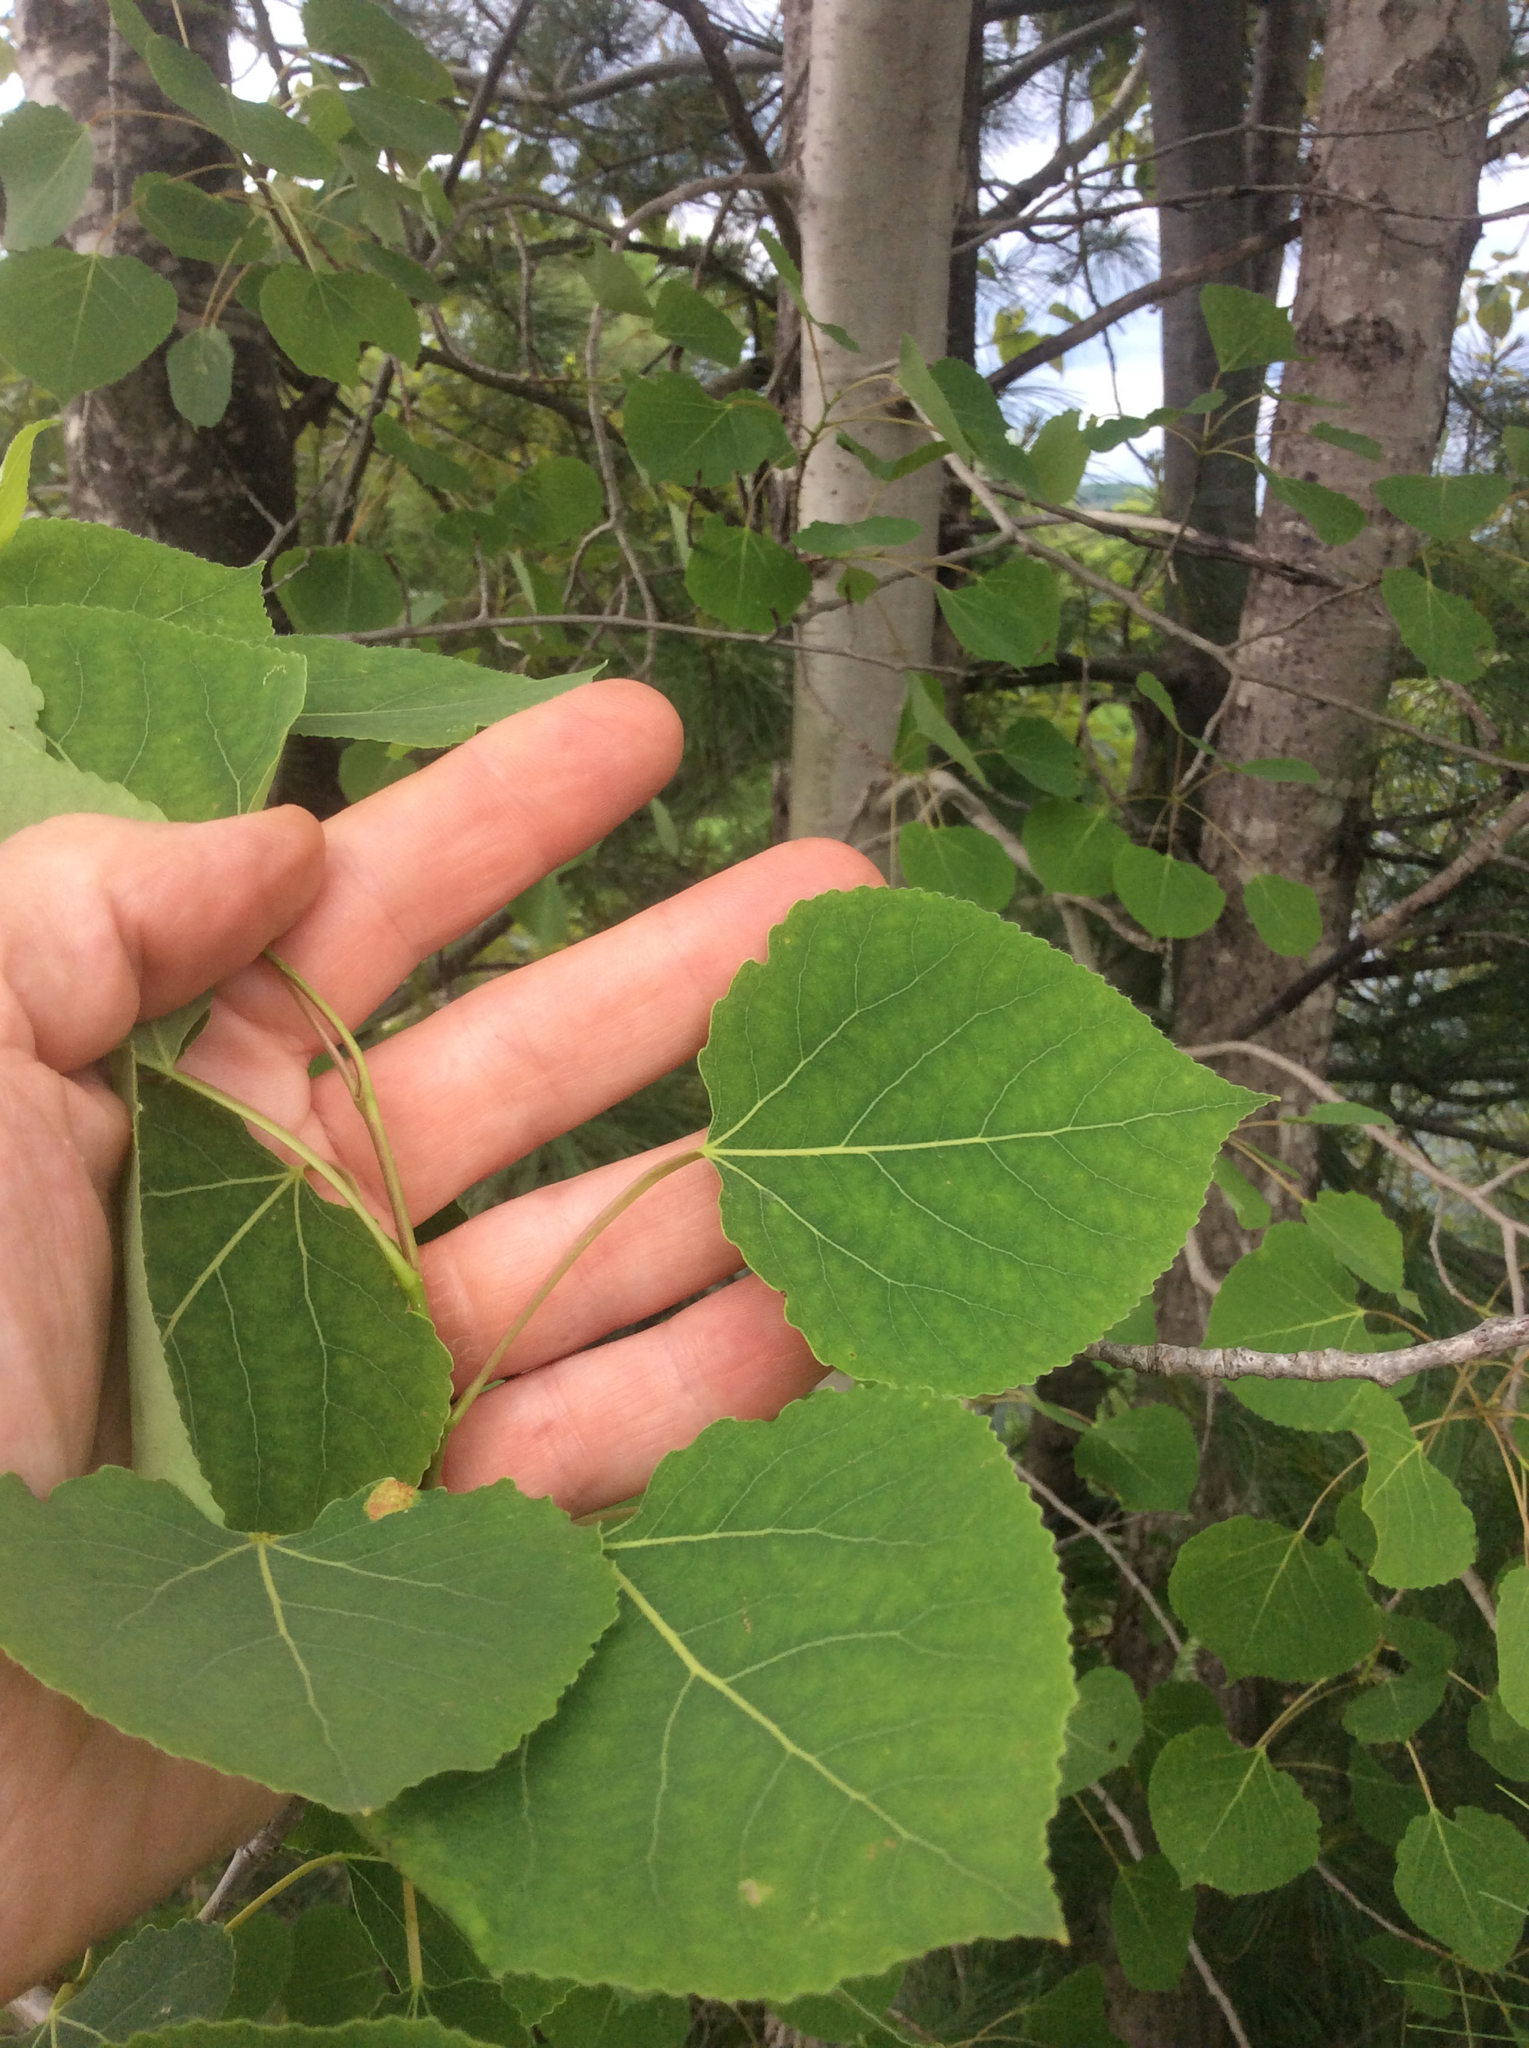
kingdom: Plantae
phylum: Tracheophyta
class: Magnoliopsida
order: Malpighiales
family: Salicaceae
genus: Populus
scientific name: Populus tremuloides
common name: Quaking aspen
